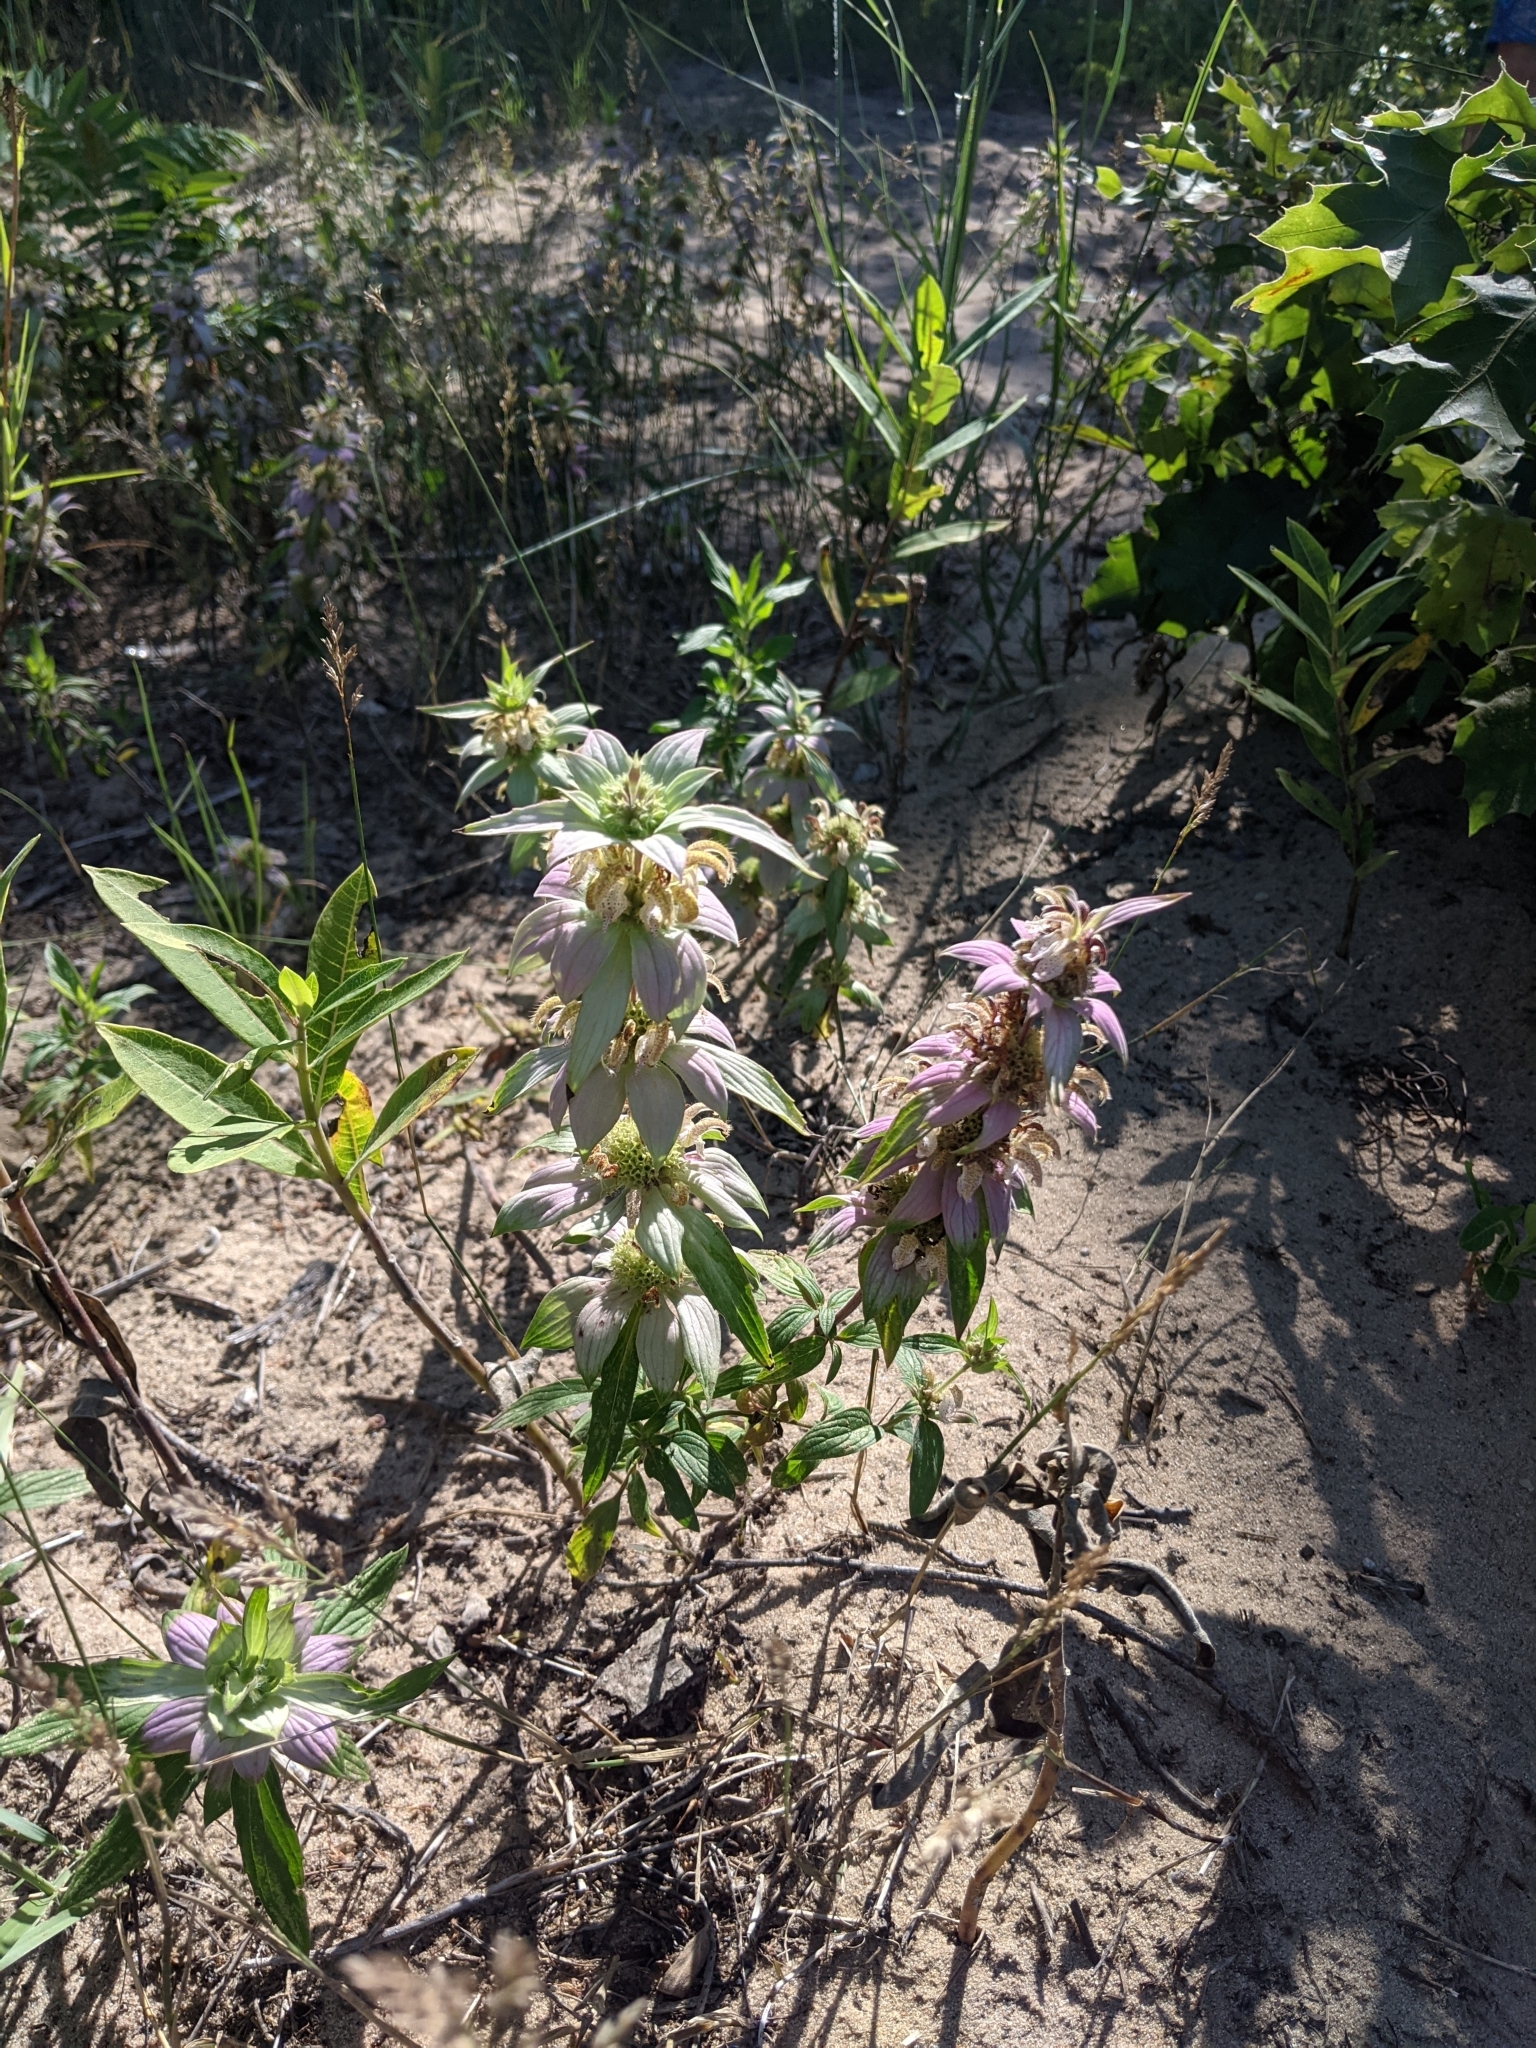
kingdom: Plantae
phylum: Tracheophyta
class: Magnoliopsida
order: Lamiales
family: Lamiaceae
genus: Monarda
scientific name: Monarda punctata
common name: Dotted monarda
